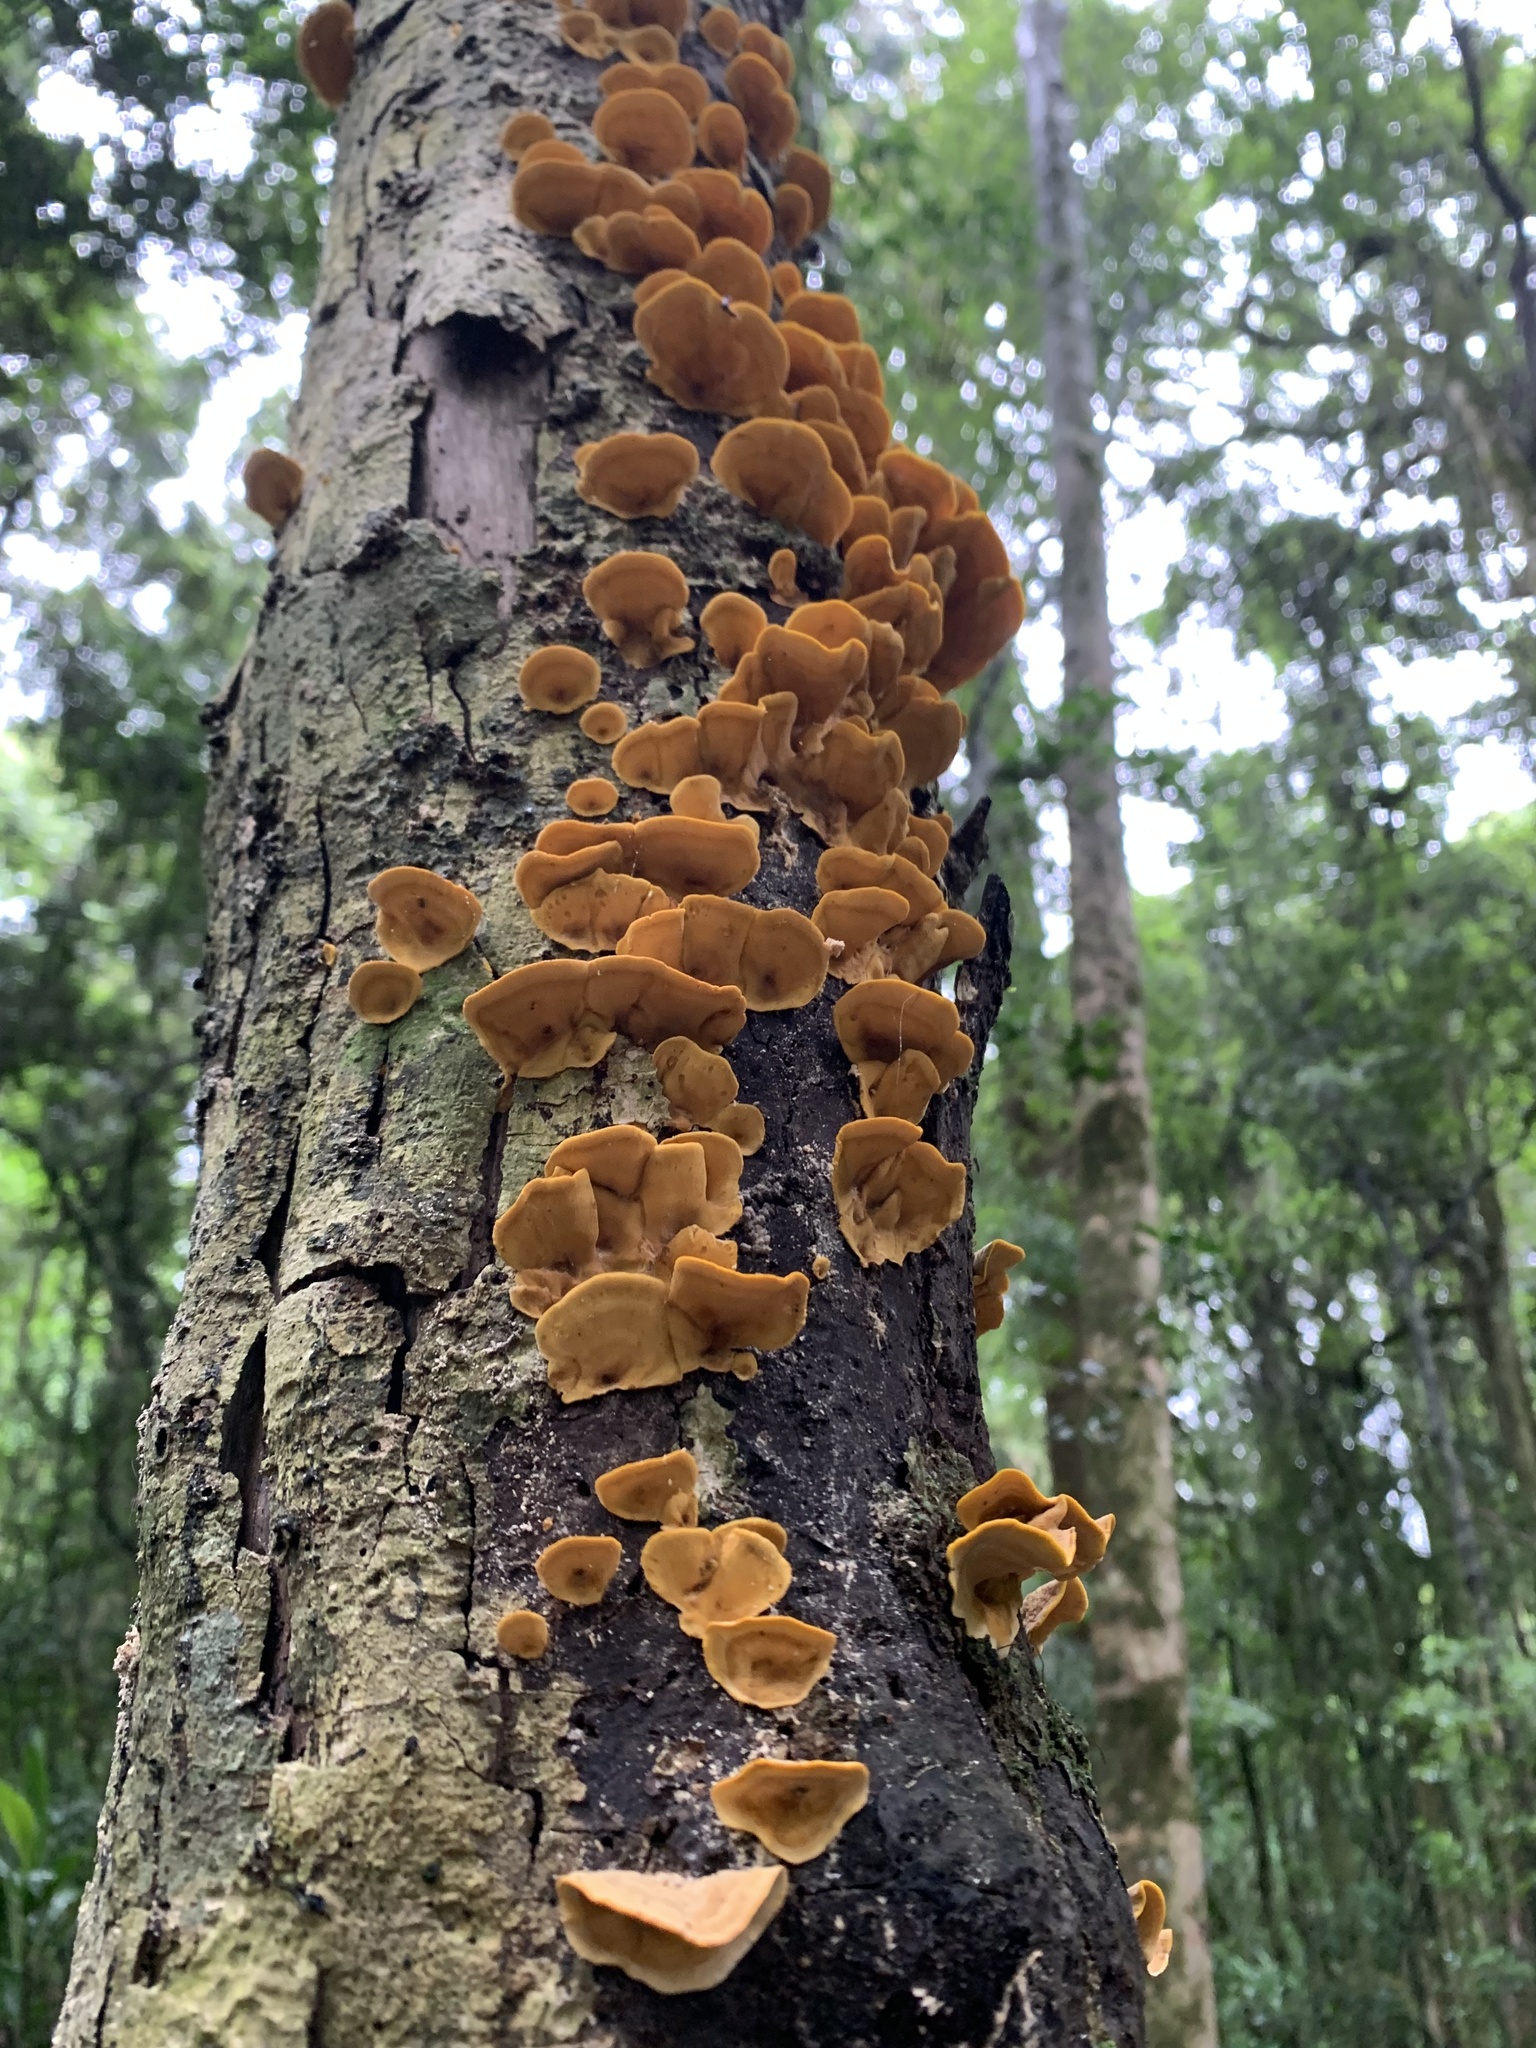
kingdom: Fungi
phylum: Basidiomycota
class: Agaricomycetes
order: Russulales
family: Stereaceae
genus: Stereum
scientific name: Stereum versicolor
